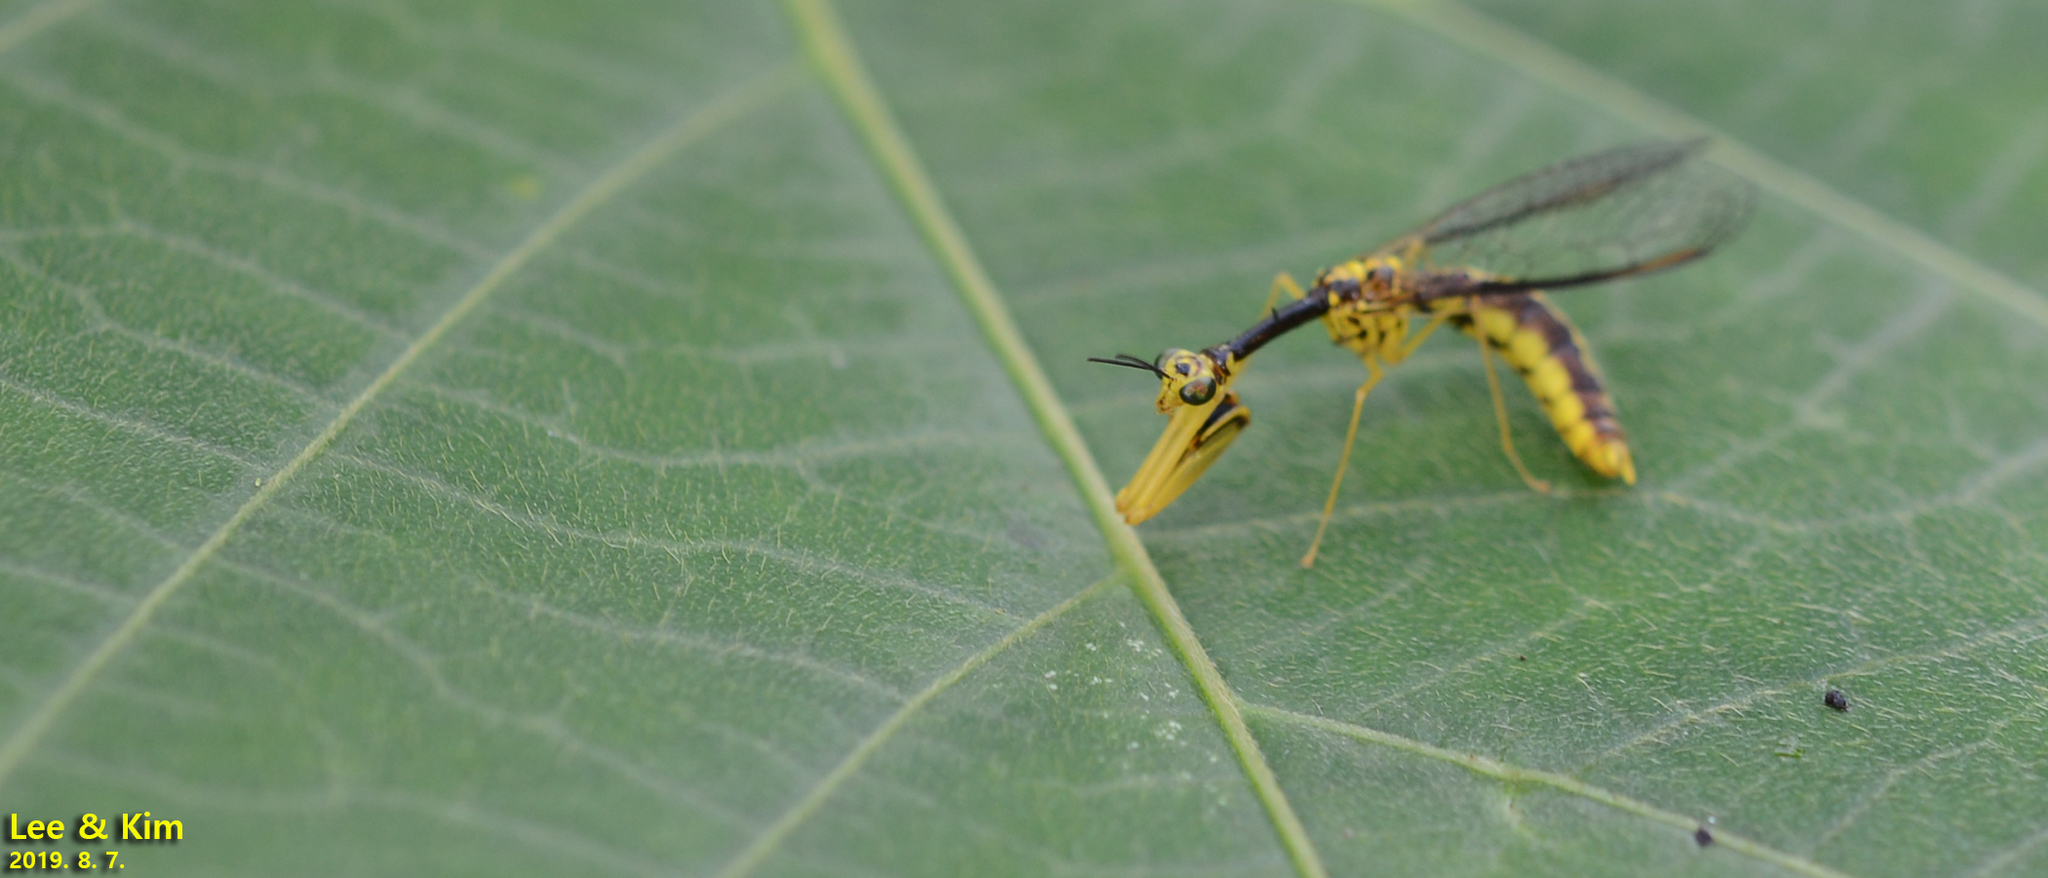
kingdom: Animalia
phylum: Arthropoda
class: Insecta
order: Neuroptera
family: Mantispidae
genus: Mantispa
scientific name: Mantispa japonica
